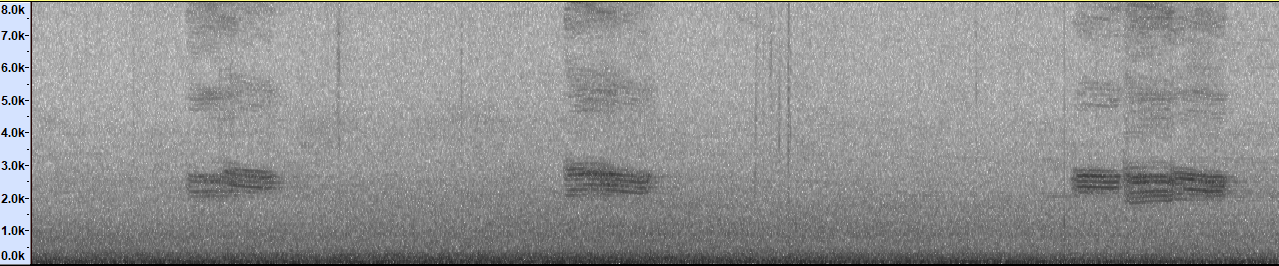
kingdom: Animalia
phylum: Chordata
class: Aves
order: Passeriformes
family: Sturnidae
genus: Gracupica
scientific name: Gracupica nigricollis
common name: Black-collared starling
